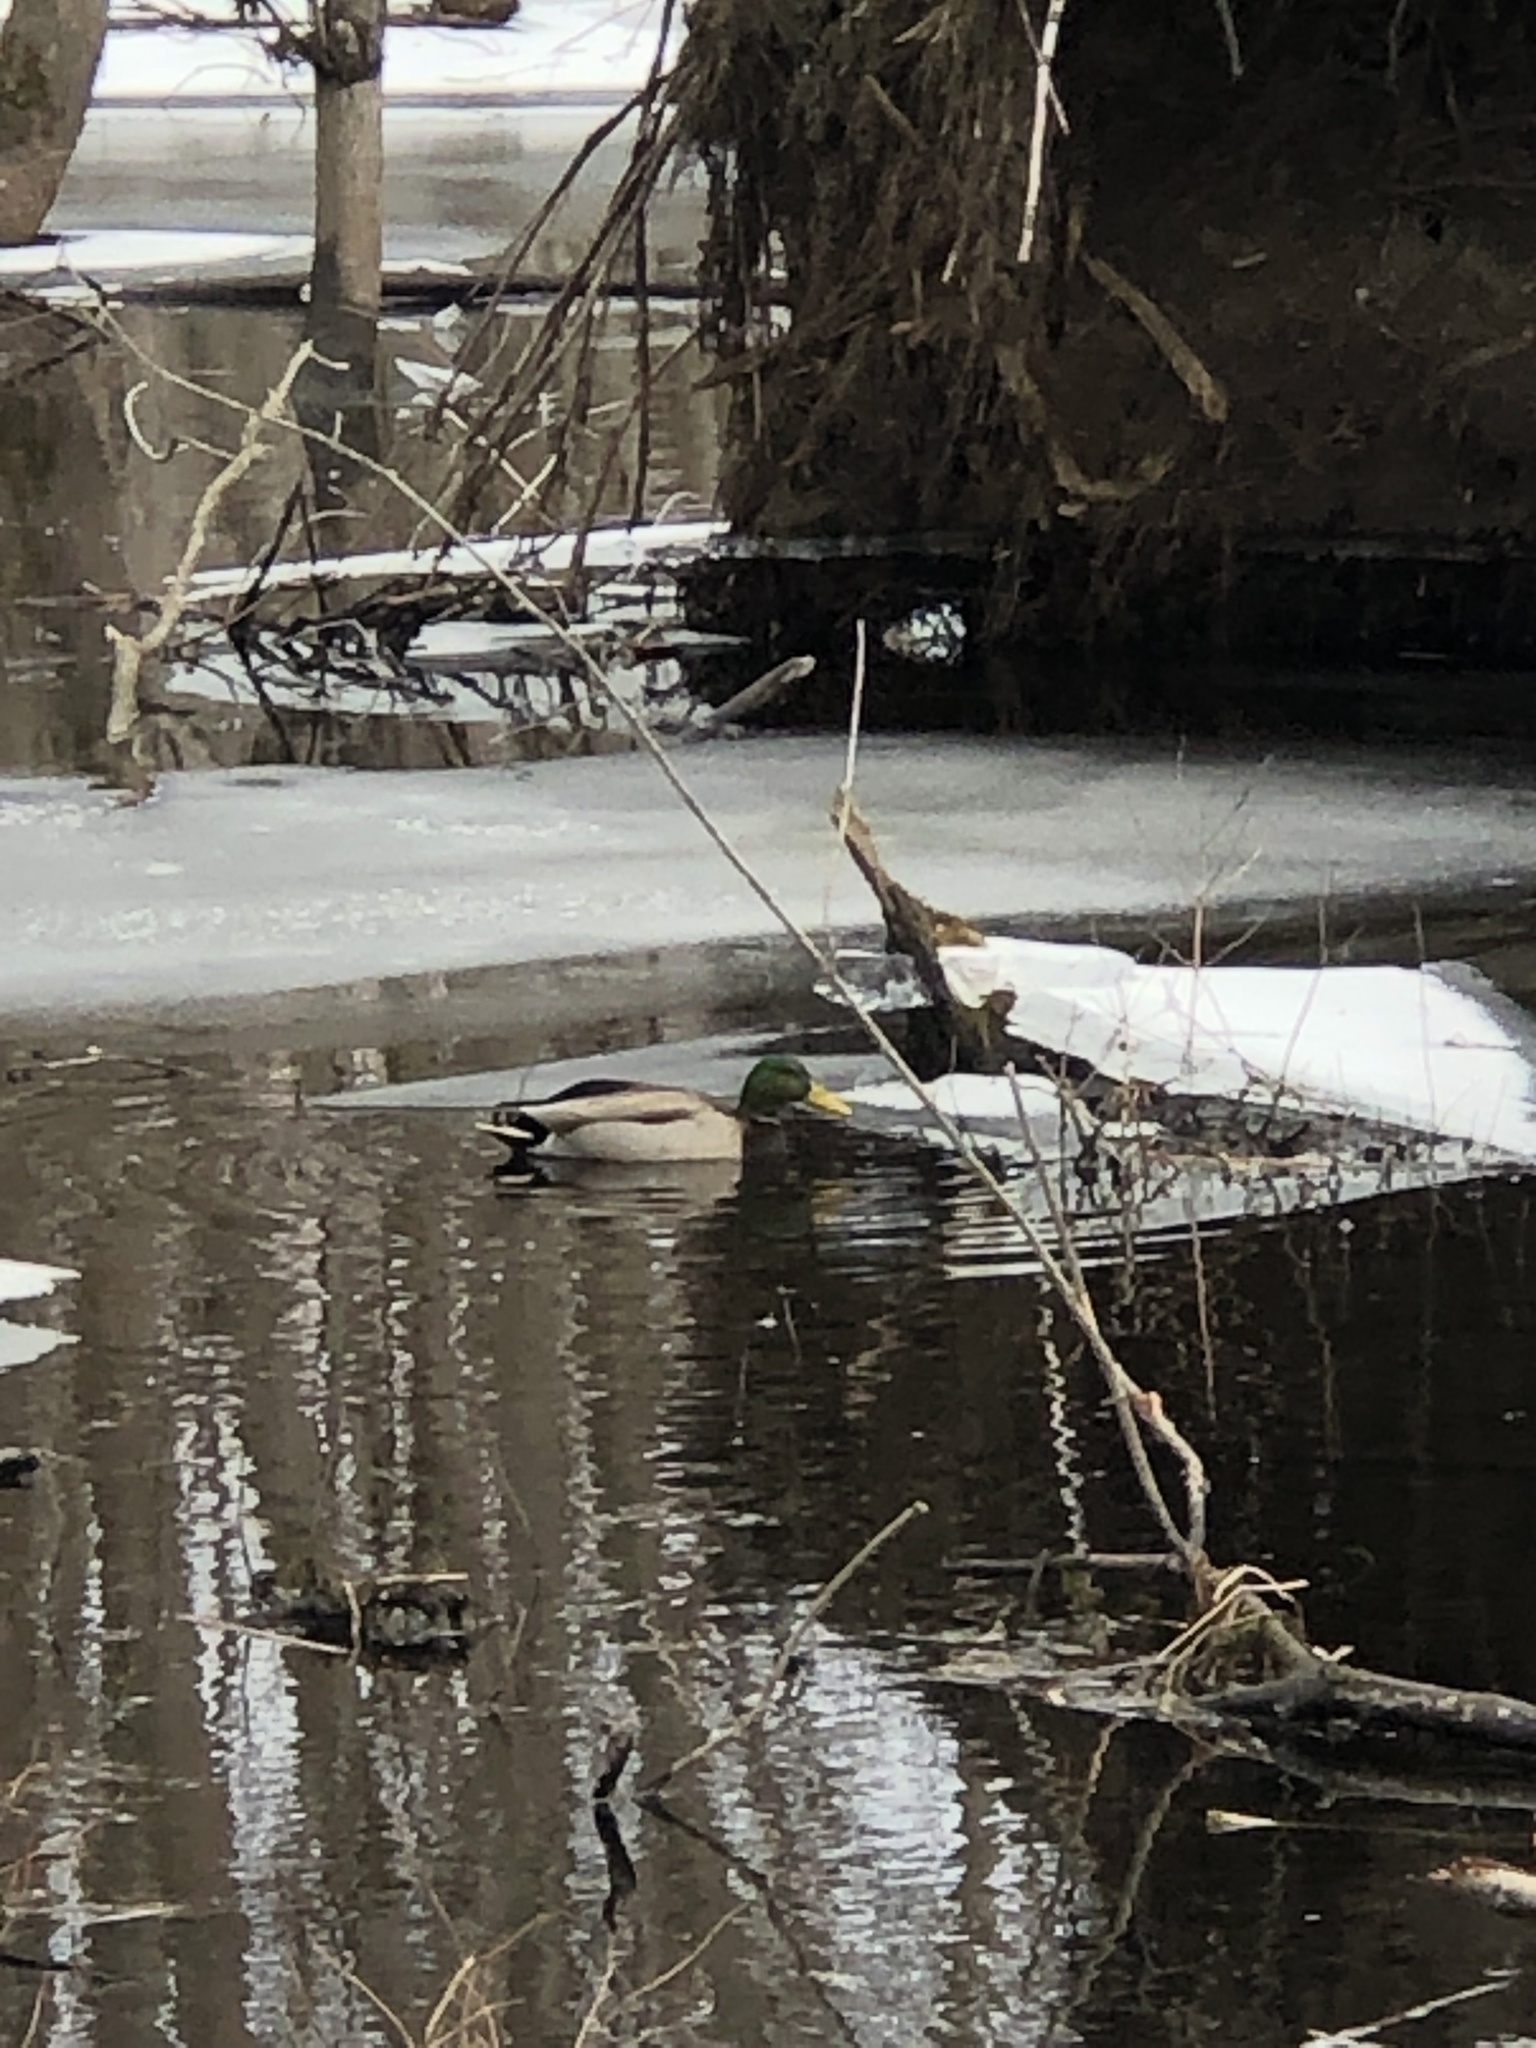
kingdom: Animalia
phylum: Chordata
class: Aves
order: Anseriformes
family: Anatidae
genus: Anas
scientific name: Anas platyrhynchos
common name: Mallard
